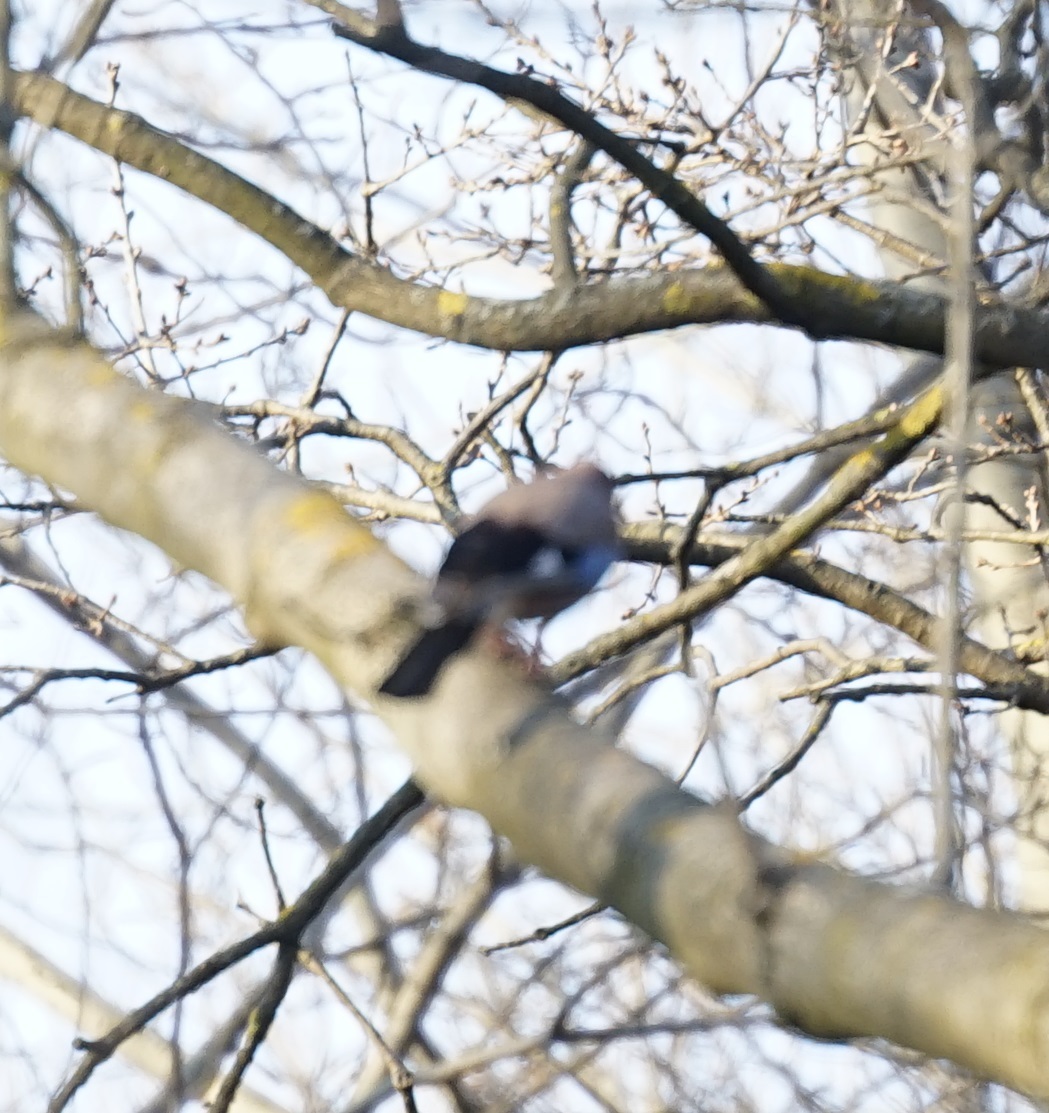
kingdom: Animalia
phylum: Chordata
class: Aves
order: Passeriformes
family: Corvidae
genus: Garrulus
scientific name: Garrulus glandarius
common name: Eurasian jay
